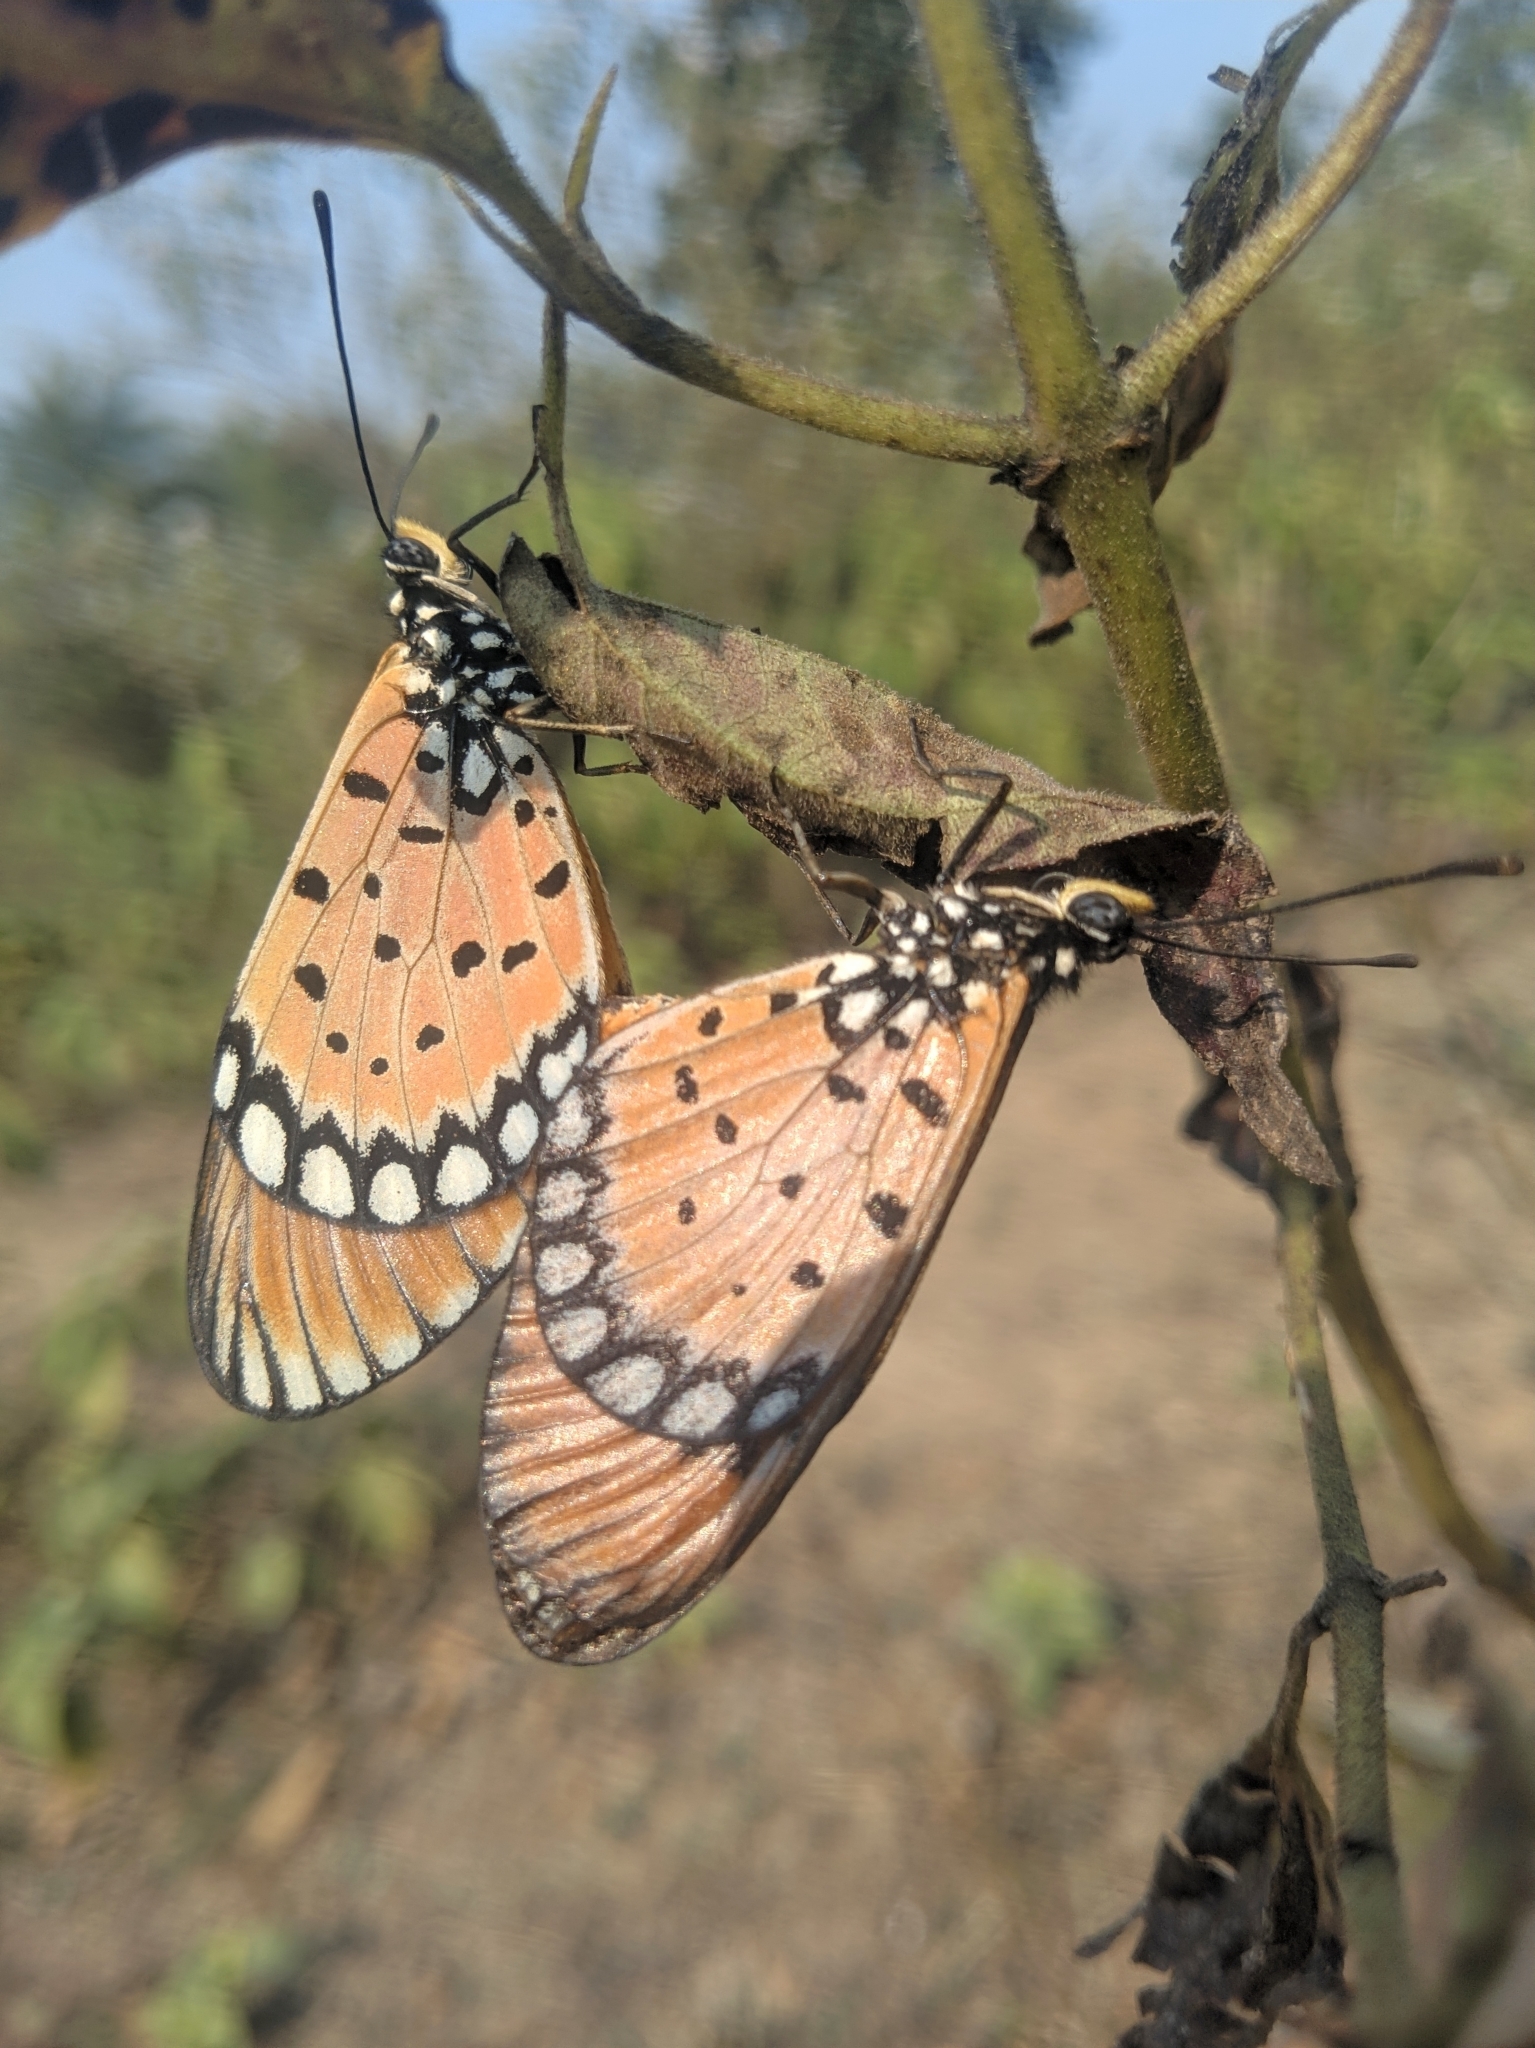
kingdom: Animalia
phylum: Arthropoda
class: Insecta
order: Lepidoptera
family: Nymphalidae
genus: Acraea
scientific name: Acraea terpsicore
